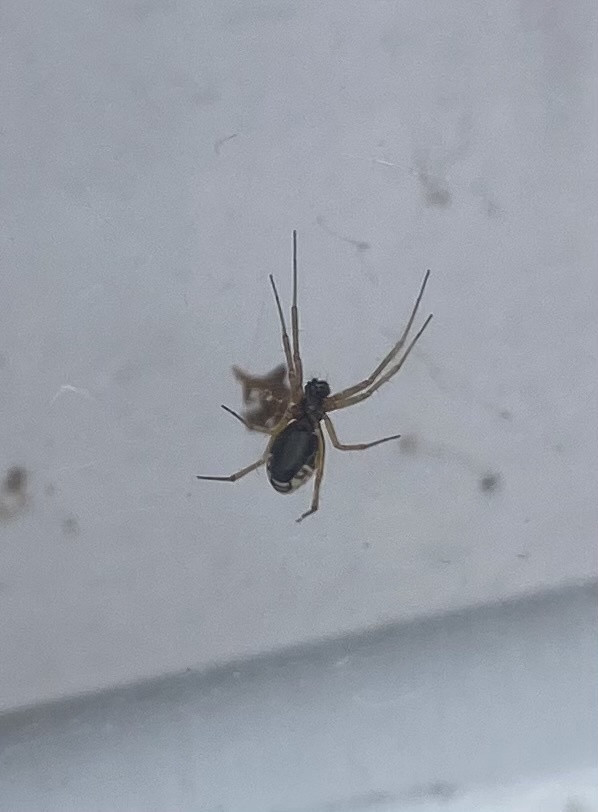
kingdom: Animalia
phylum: Arthropoda
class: Arachnida
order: Araneae
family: Linyphiidae
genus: Frontinellina
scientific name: Frontinellina frutetorum
